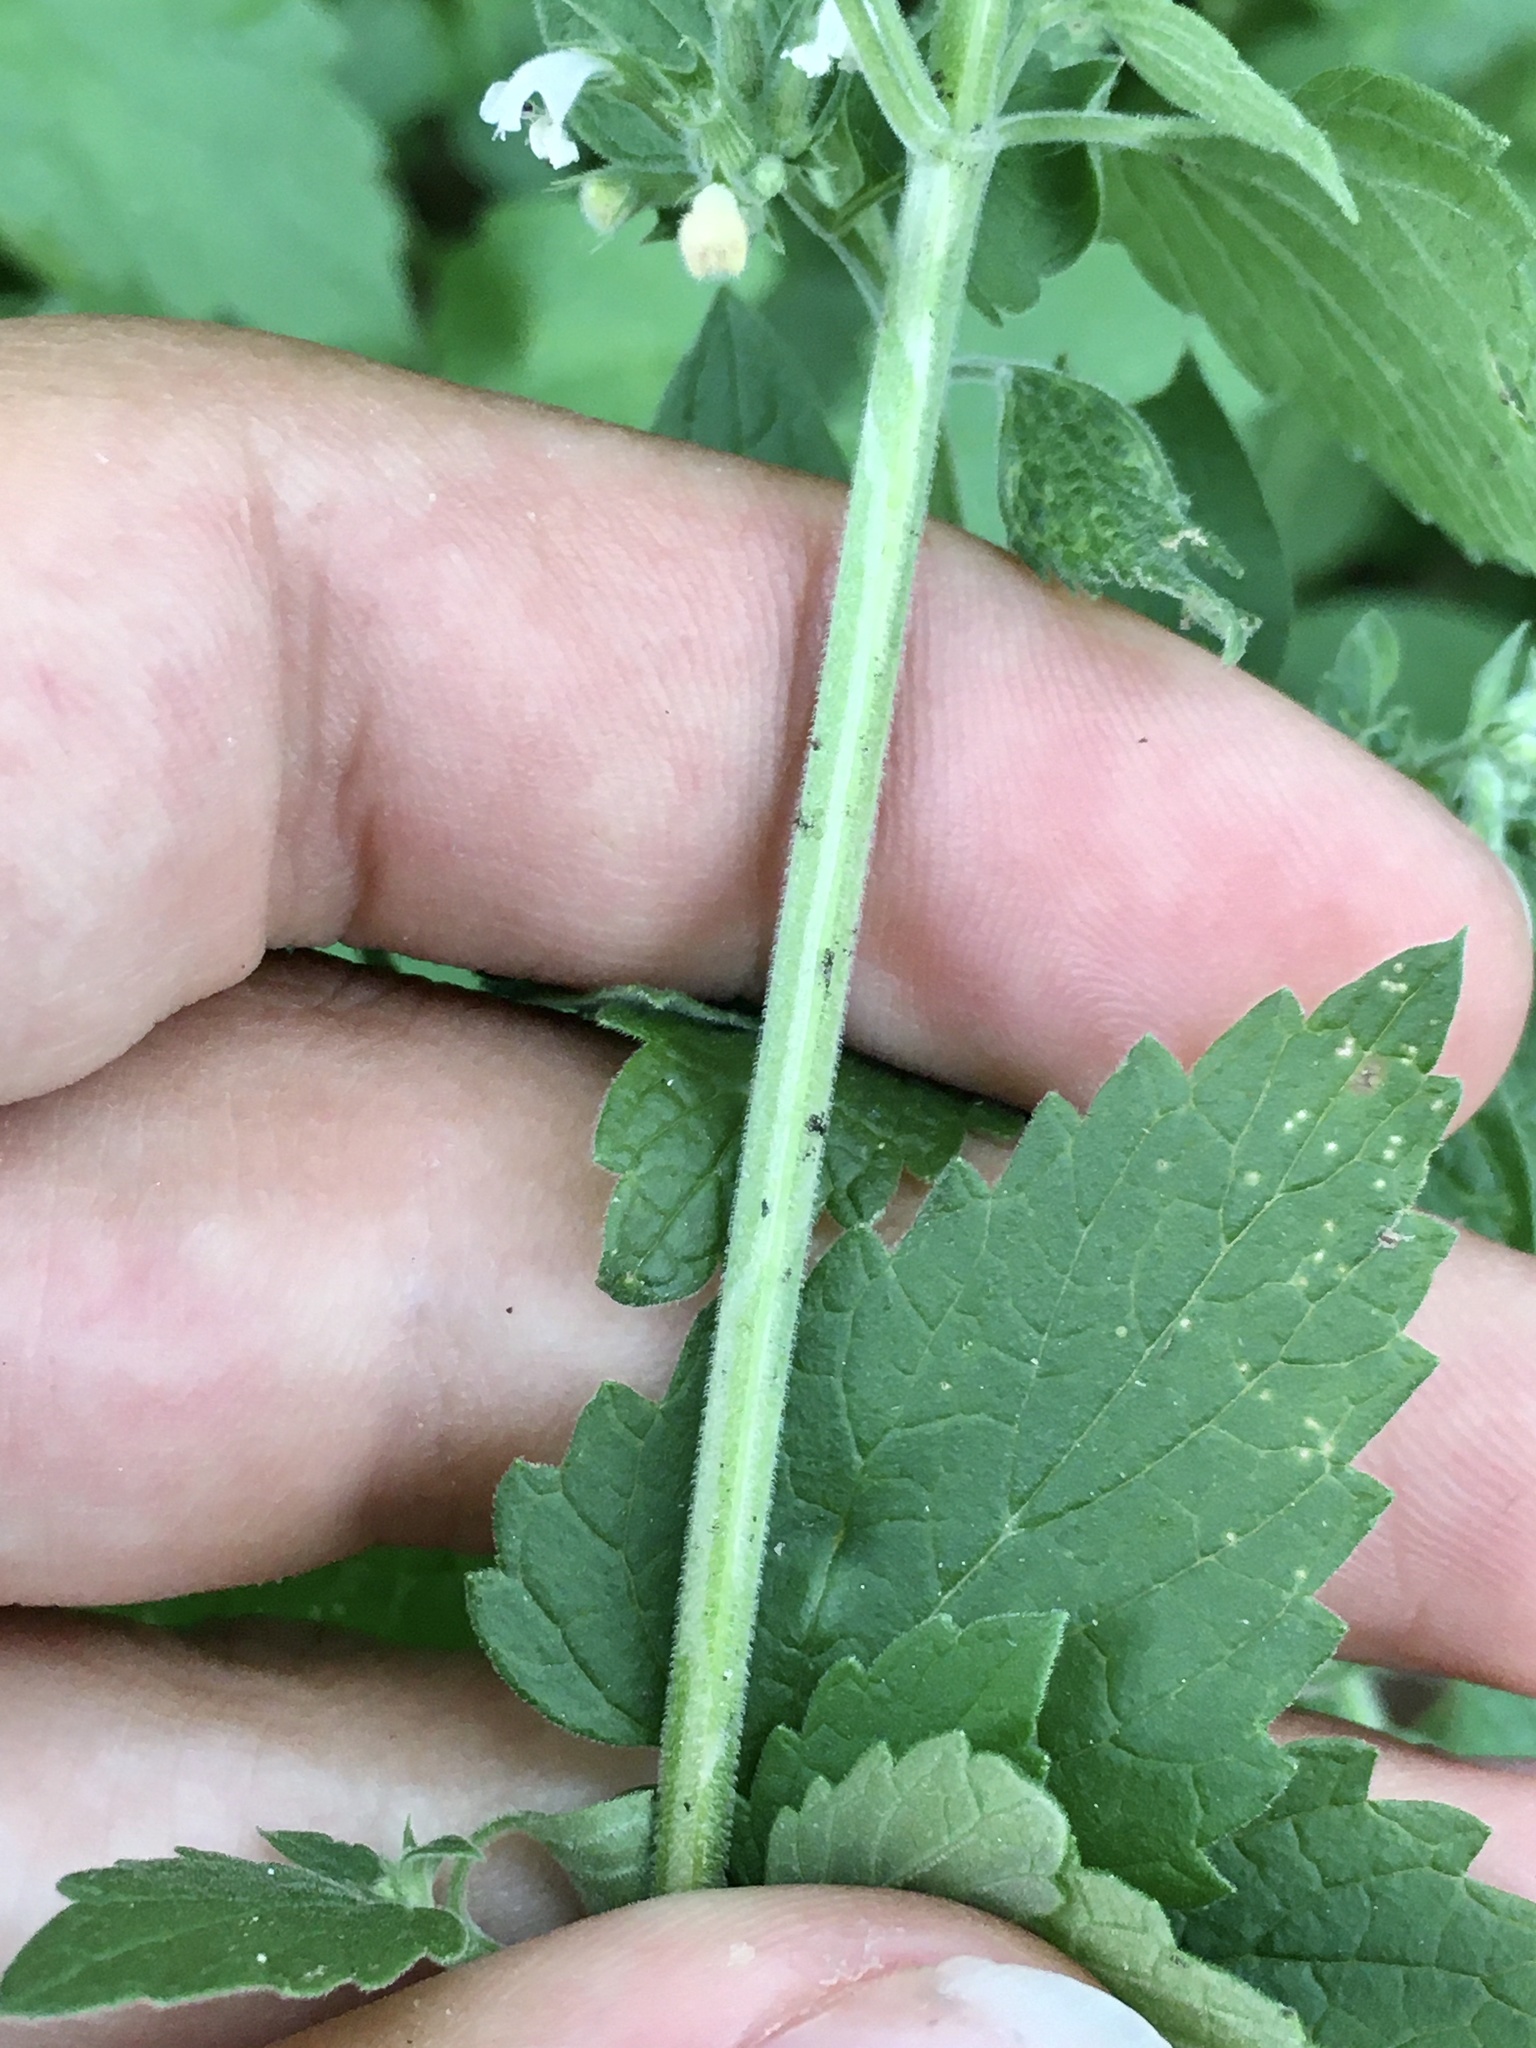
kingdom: Animalia
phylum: Arthropoda
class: Insecta
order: Diptera
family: Agromyzidae
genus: Ophiomyia
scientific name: Ophiomyia labiatarum
